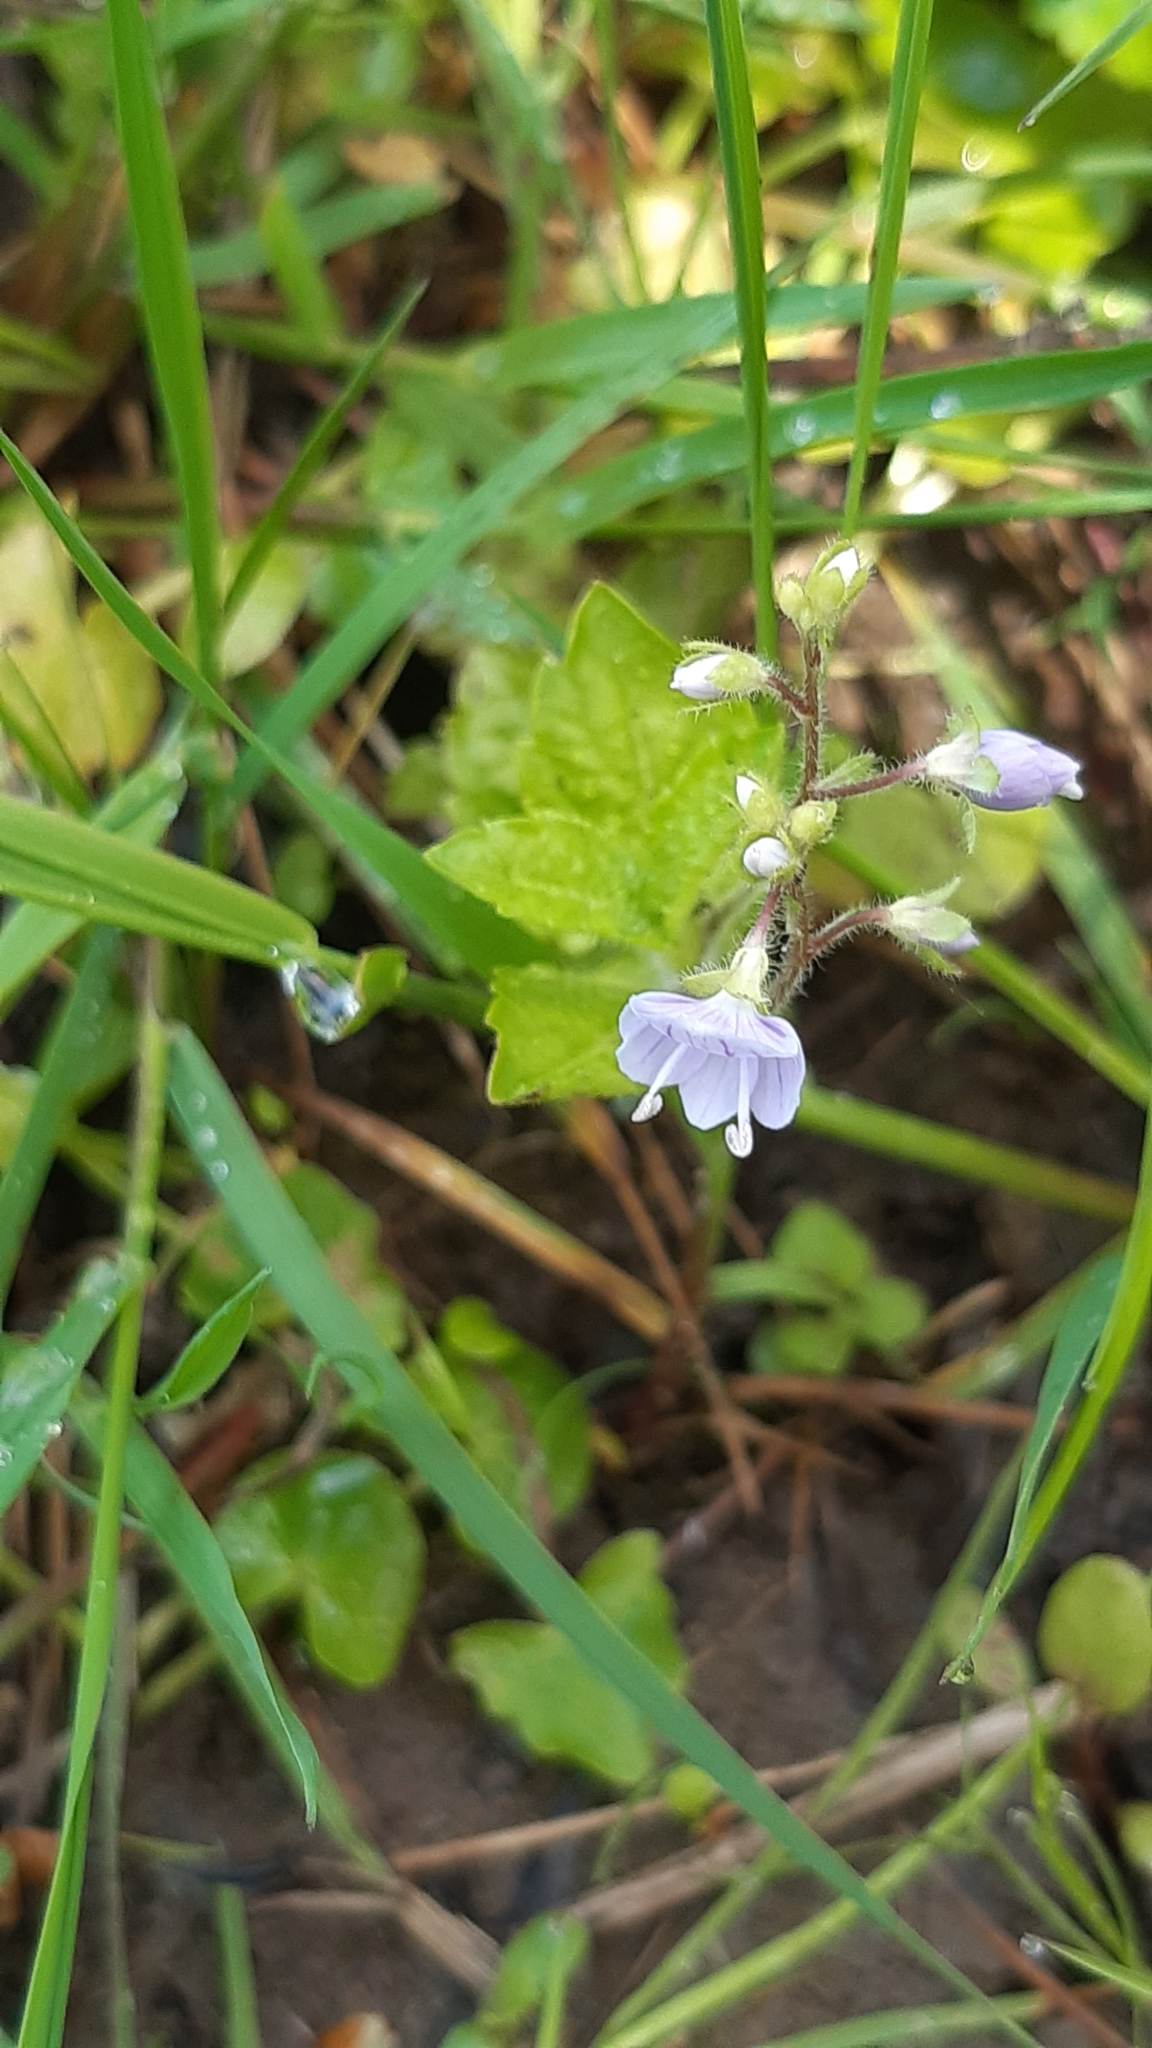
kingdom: Plantae
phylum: Tracheophyta
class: Magnoliopsida
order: Lamiales
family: Plantaginaceae
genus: Veronica
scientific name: Veronica montana
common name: Wood speedwell
